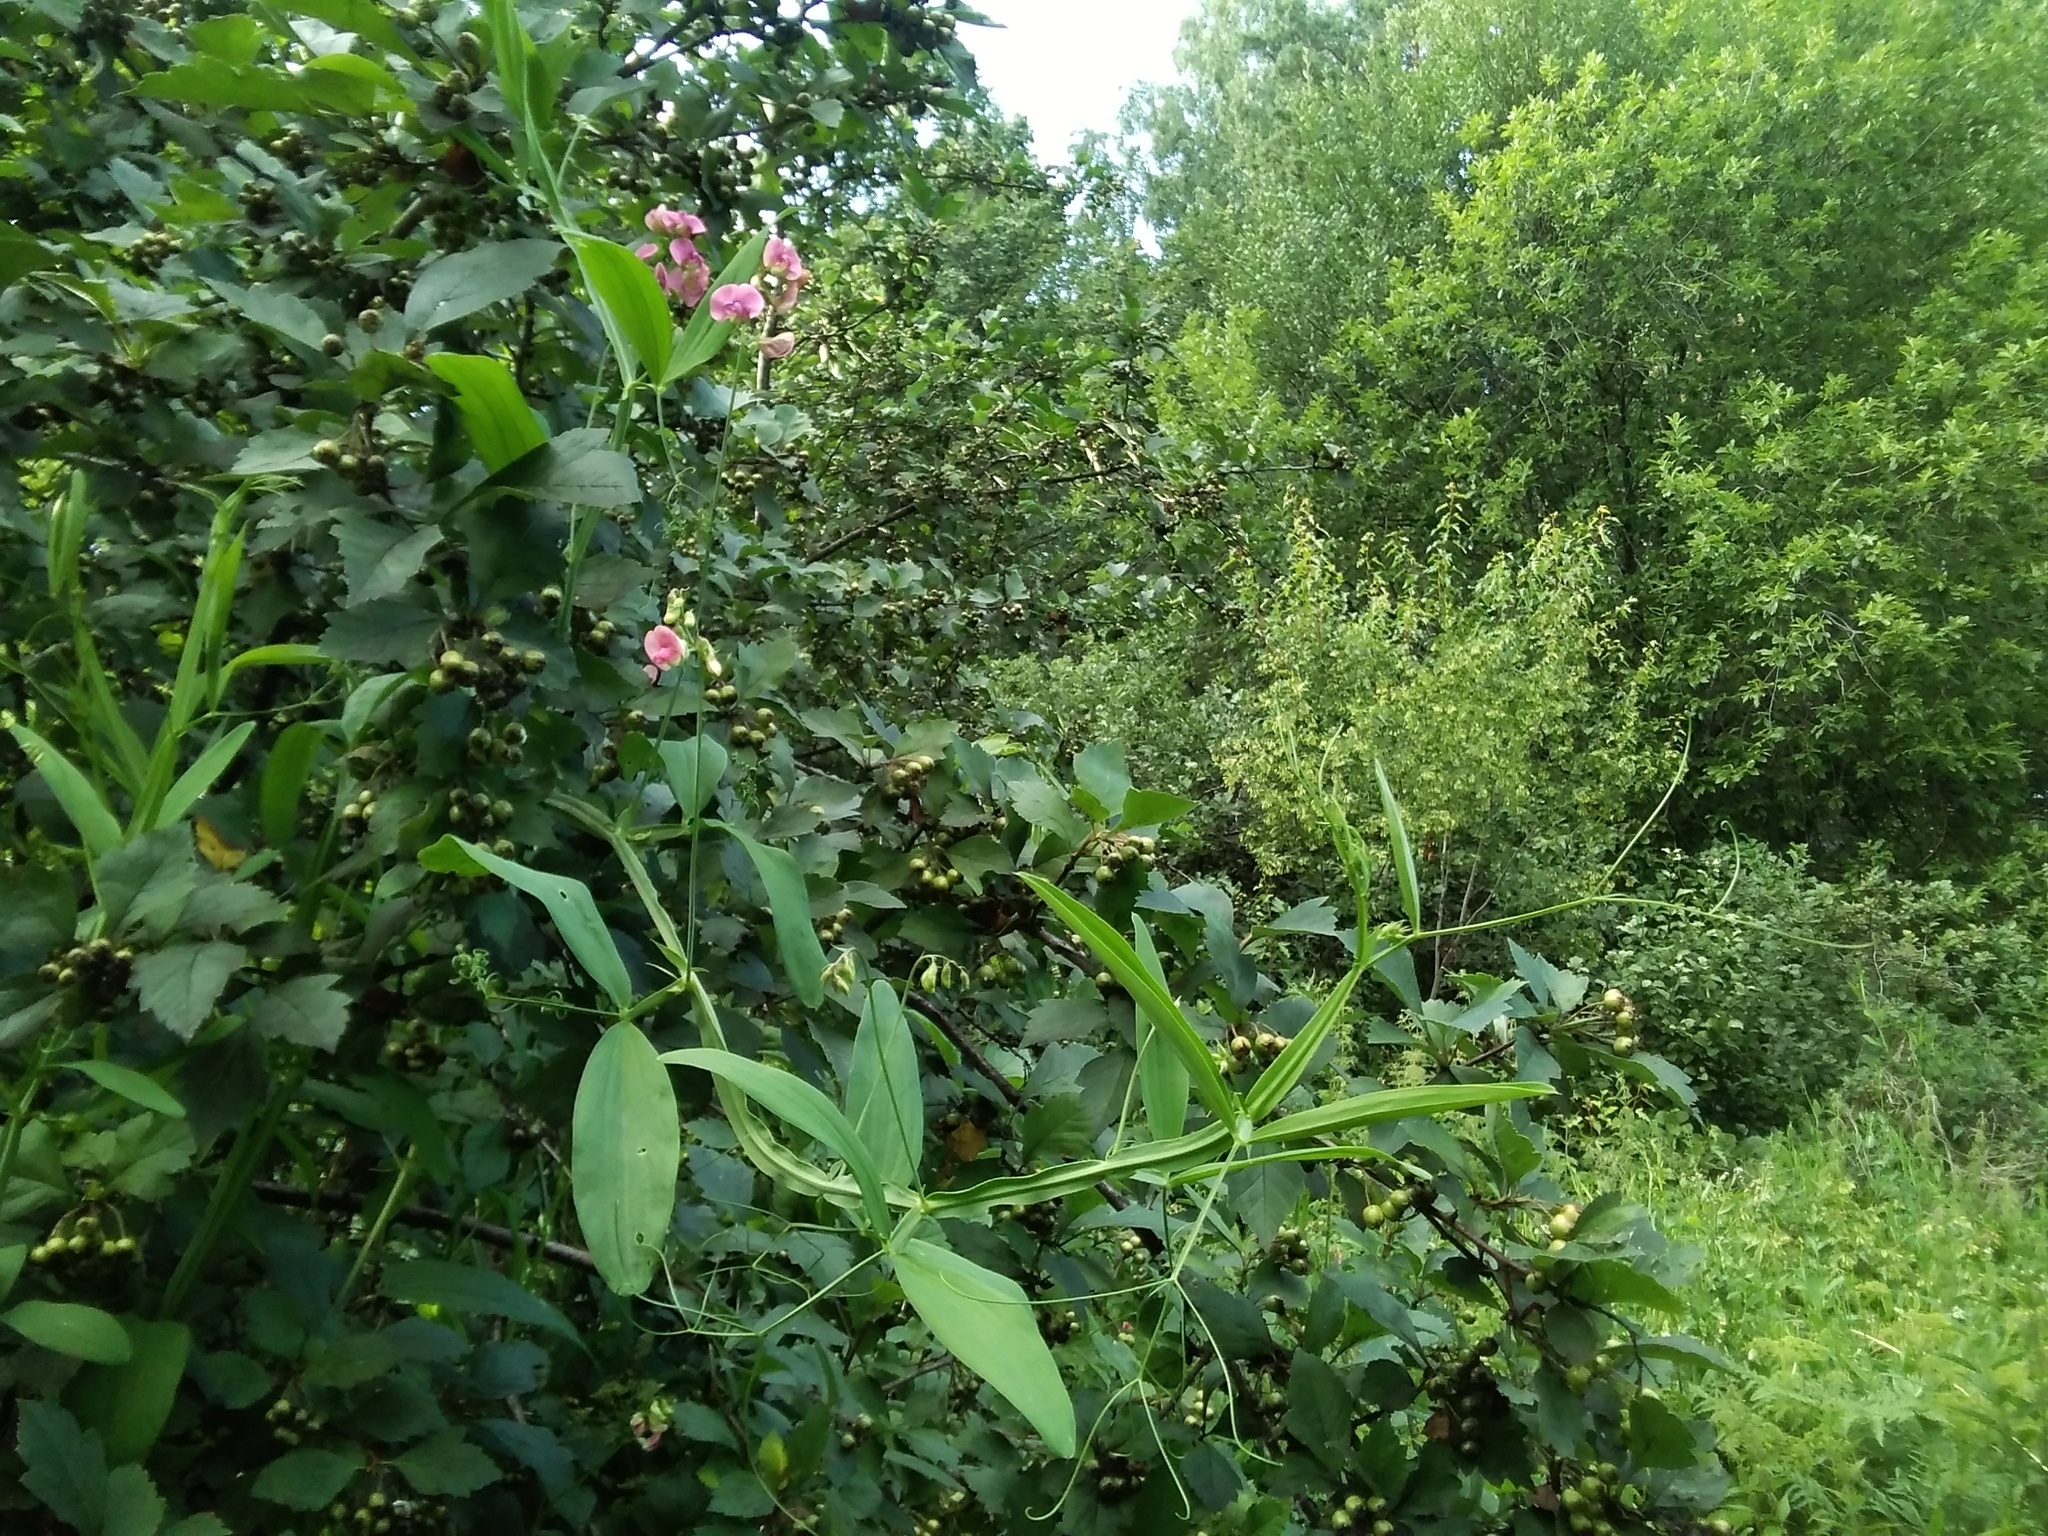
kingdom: Plantae
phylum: Tracheophyta
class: Magnoliopsida
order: Fabales
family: Fabaceae
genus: Lathyrus
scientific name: Lathyrus sylvestris
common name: Flat pea
